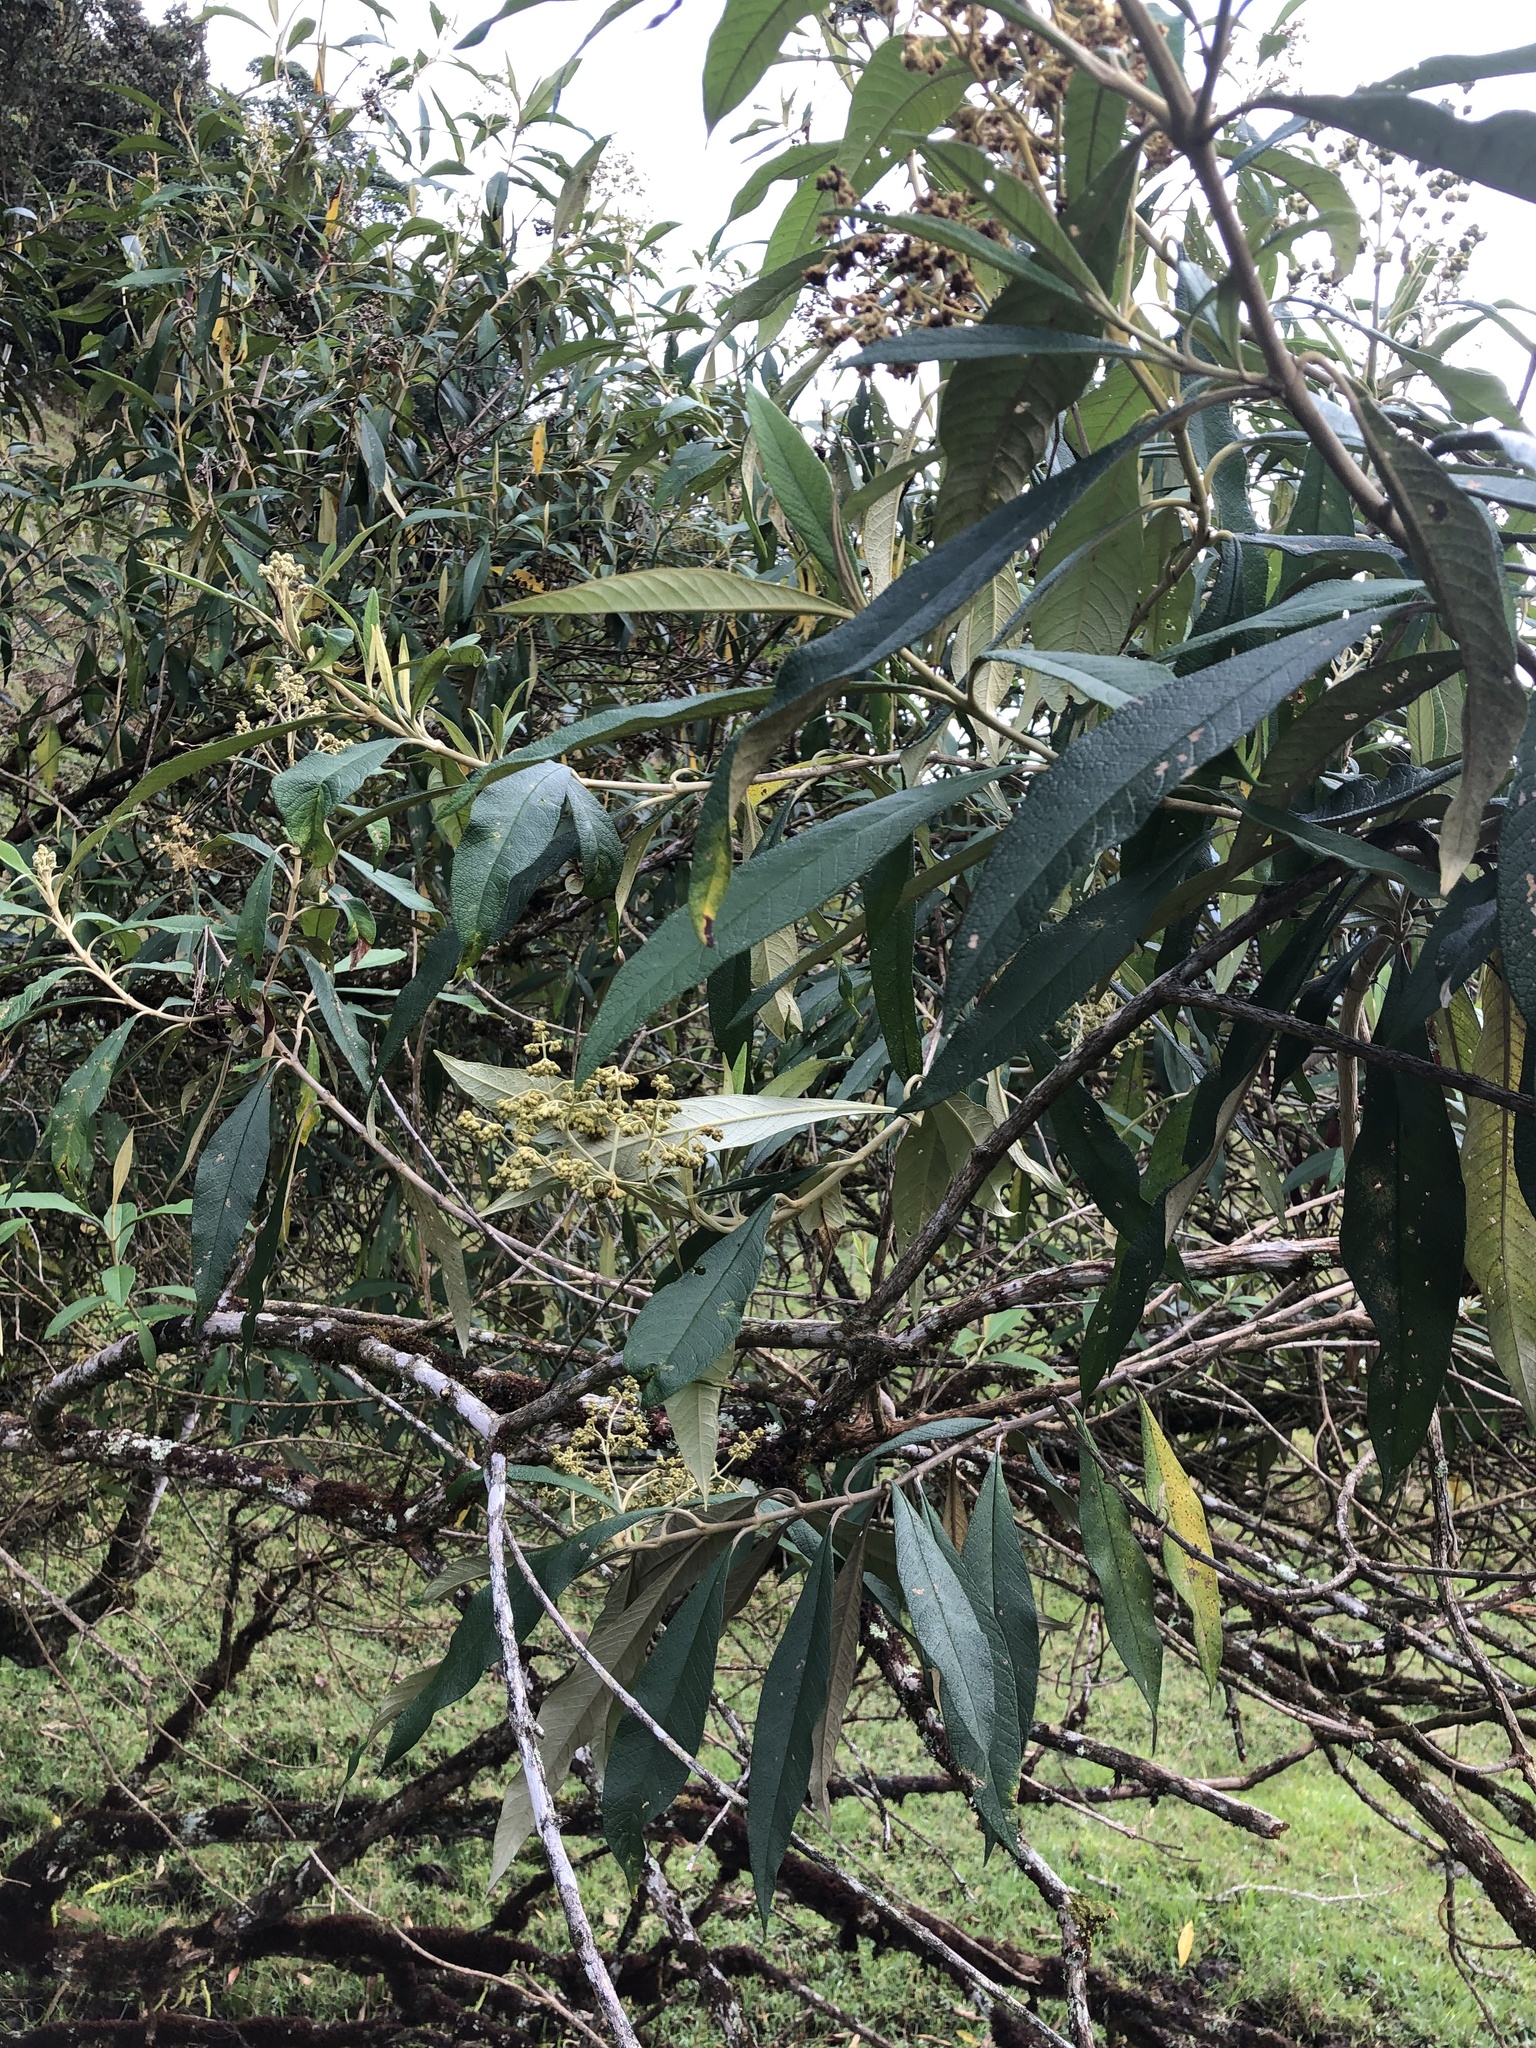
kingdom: Plantae
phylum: Tracheophyta
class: Magnoliopsida
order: Lamiales
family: Scrophulariaceae
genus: Buddleja
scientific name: Buddleja bullata
